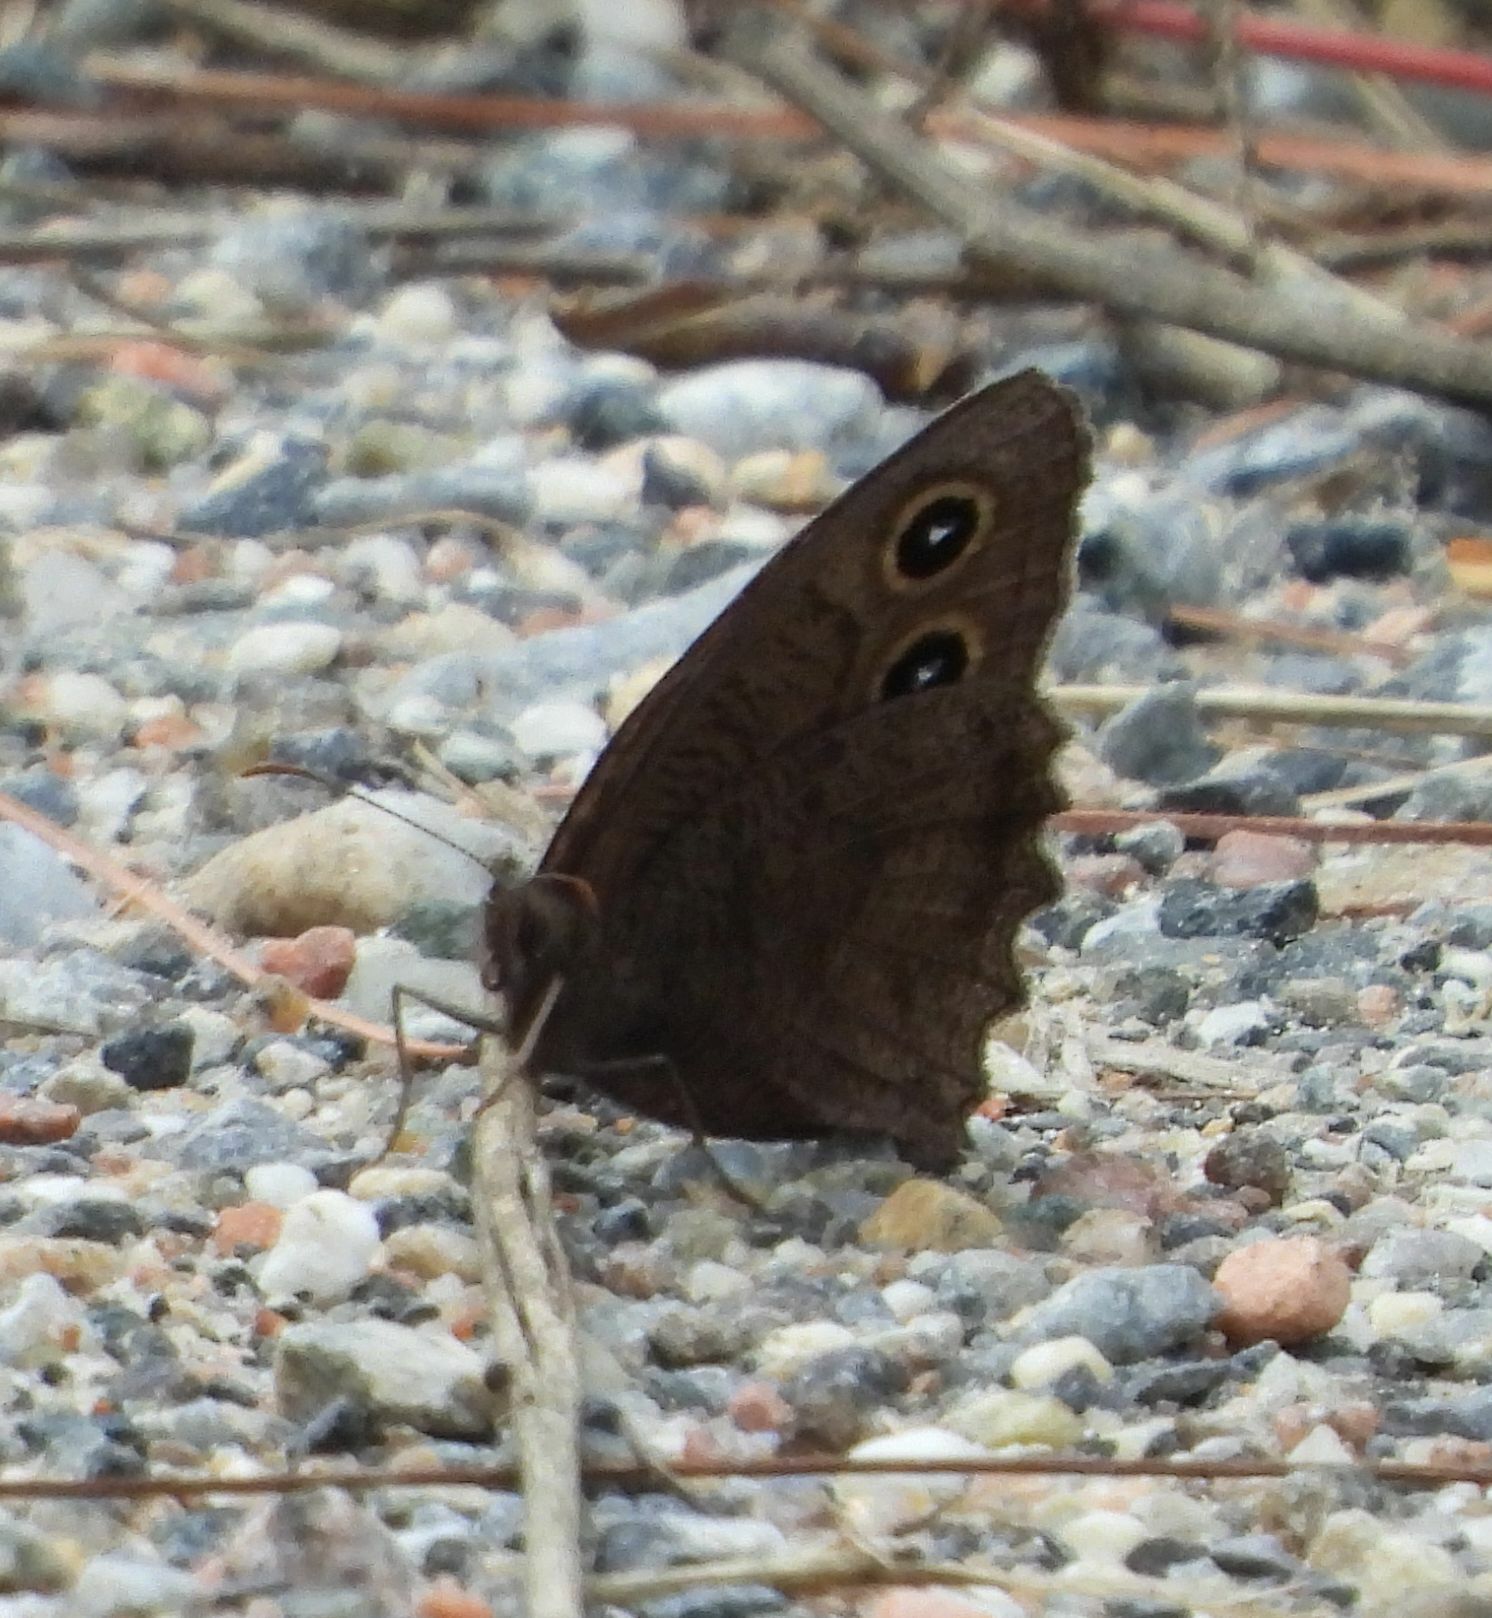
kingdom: Animalia
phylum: Arthropoda
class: Insecta
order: Lepidoptera
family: Nymphalidae
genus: Cercyonis
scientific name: Cercyonis pegala
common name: Common wood-nymph
